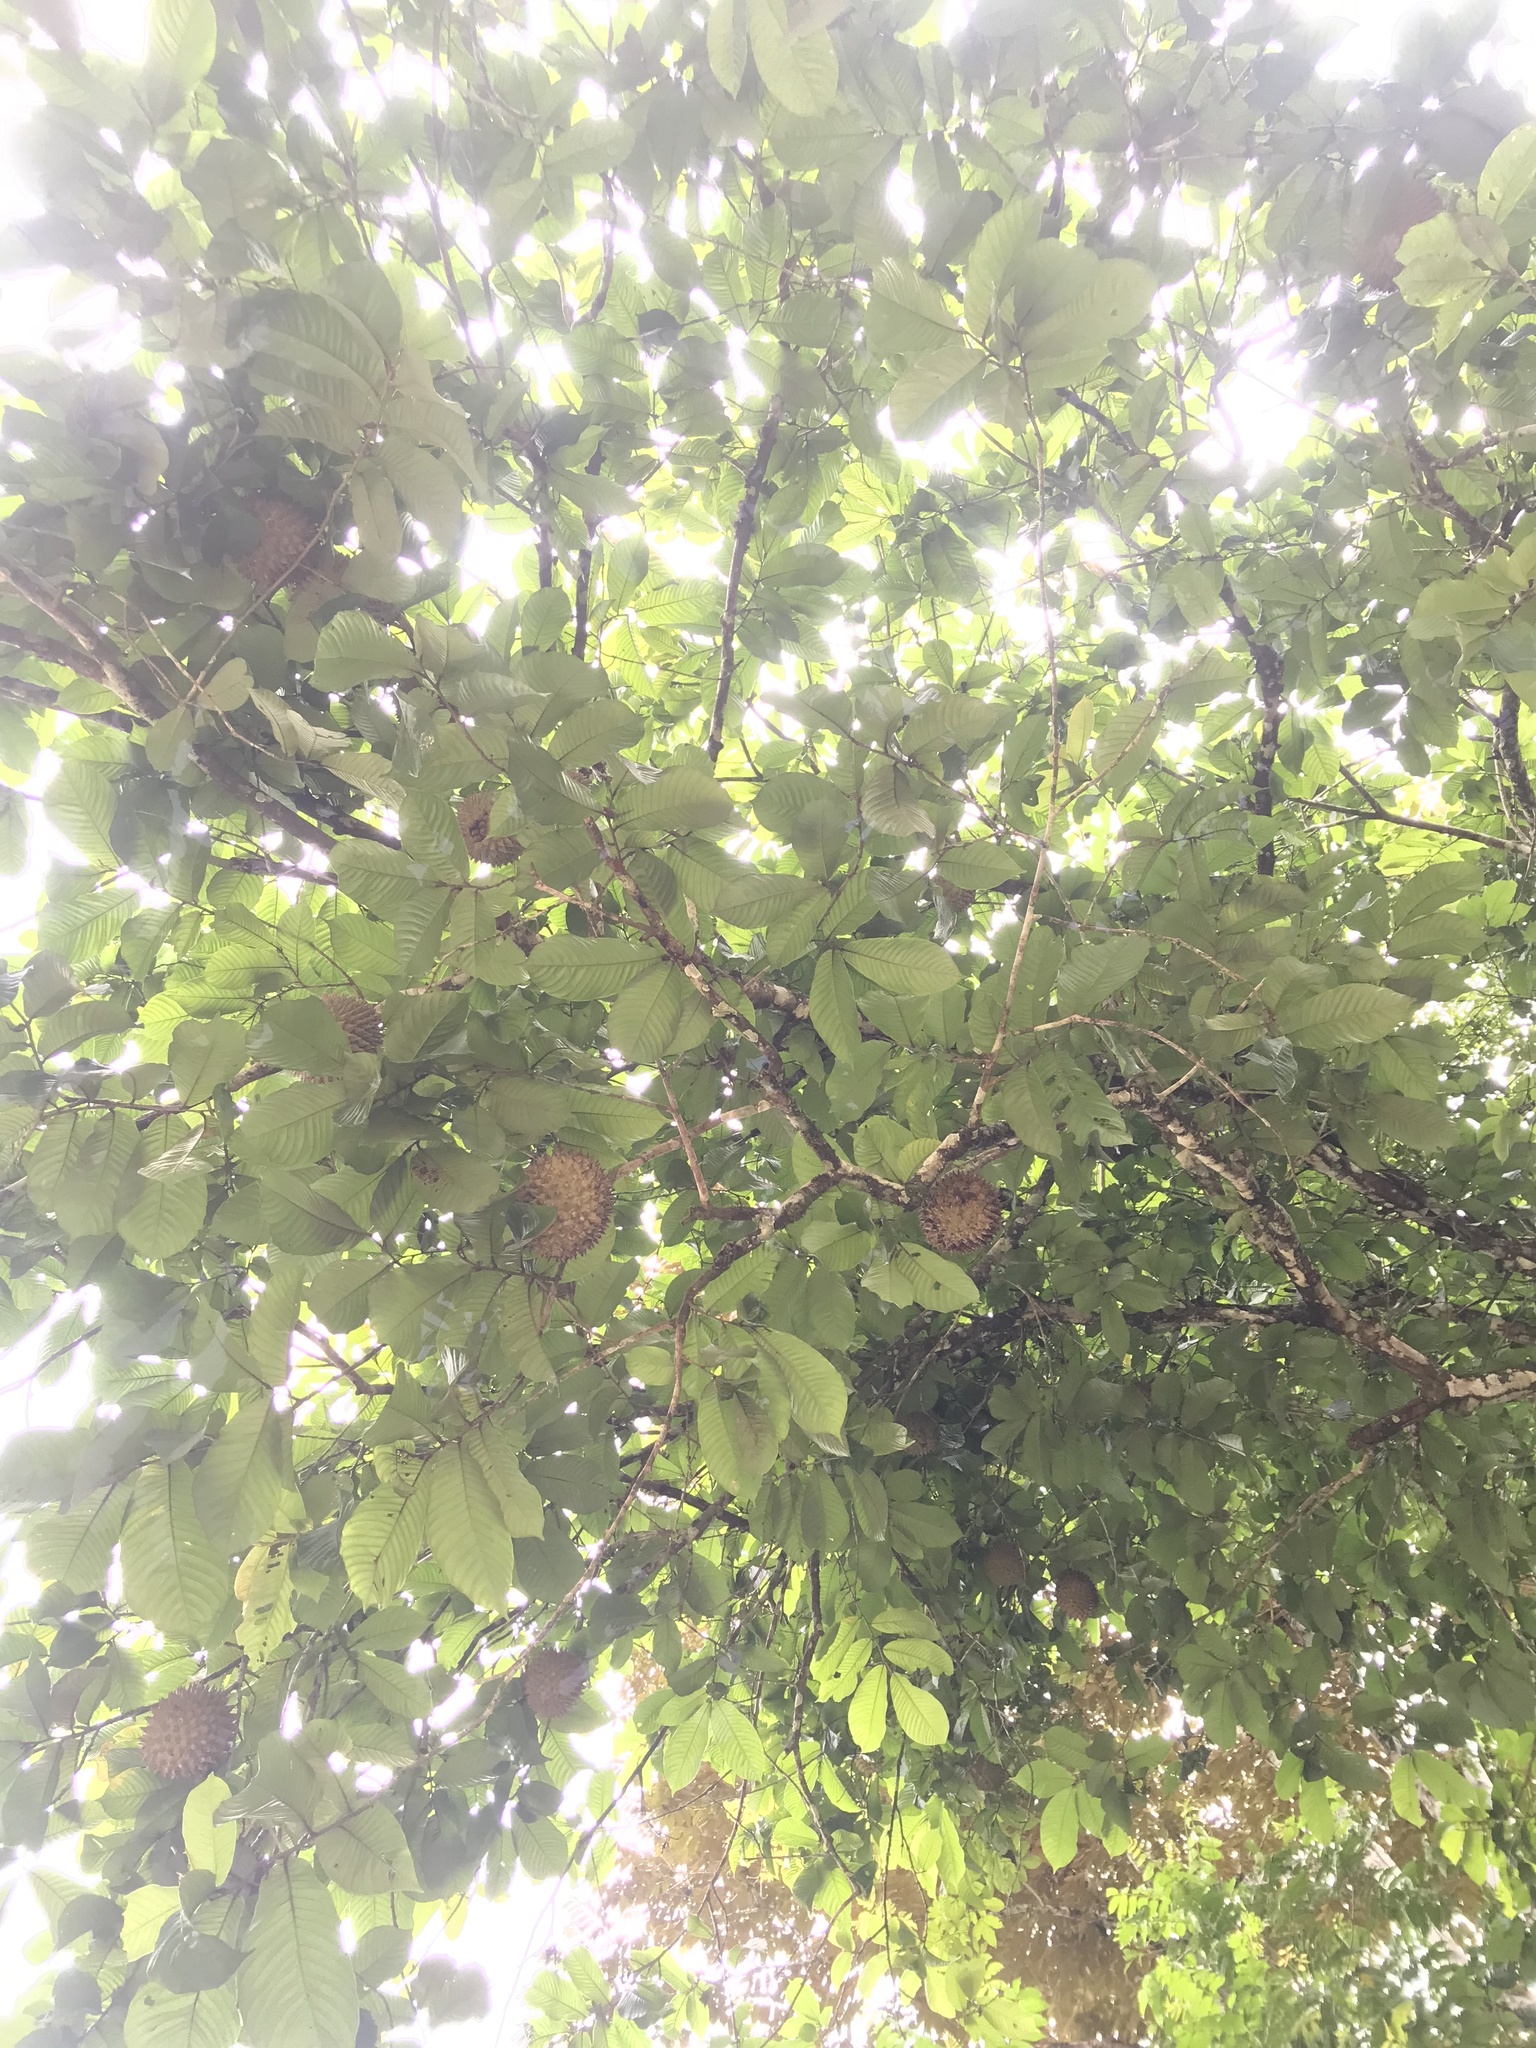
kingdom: Plantae
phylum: Tracheophyta
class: Magnoliopsida
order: Magnoliales
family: Annonaceae
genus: Annona
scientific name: Annona purpurea
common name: Negrohead
